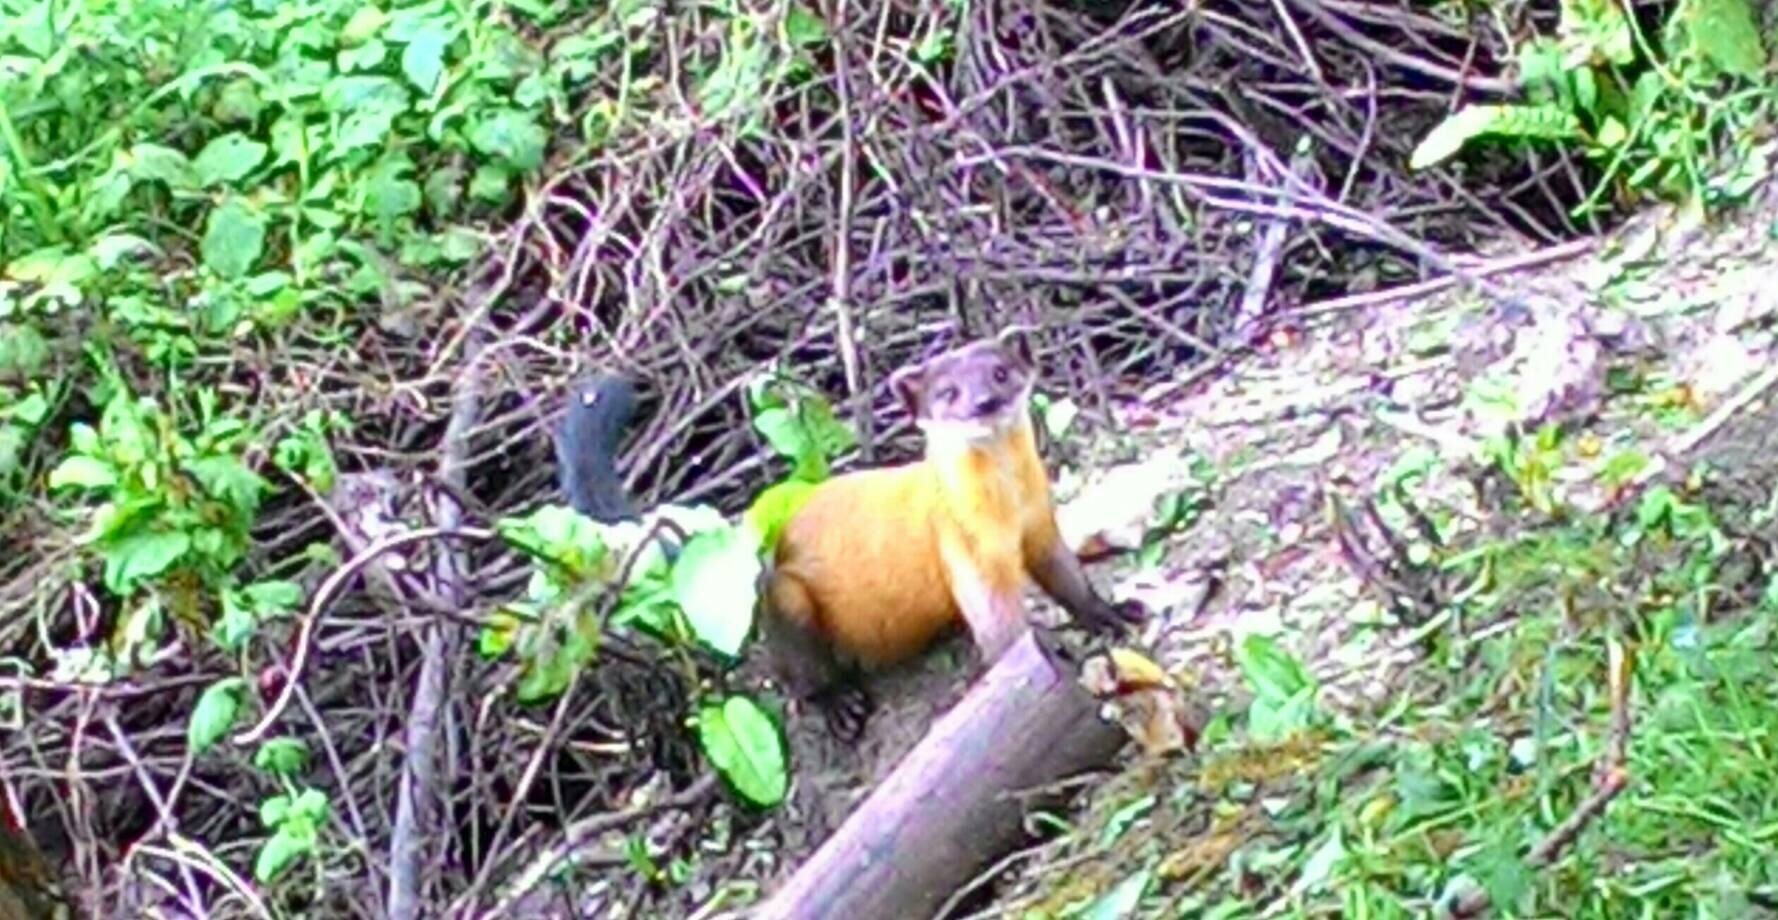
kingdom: Animalia
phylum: Chordata
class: Mammalia
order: Carnivora
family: Mustelidae
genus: Martes
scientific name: Martes flavigula
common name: Yellow-throated marten
